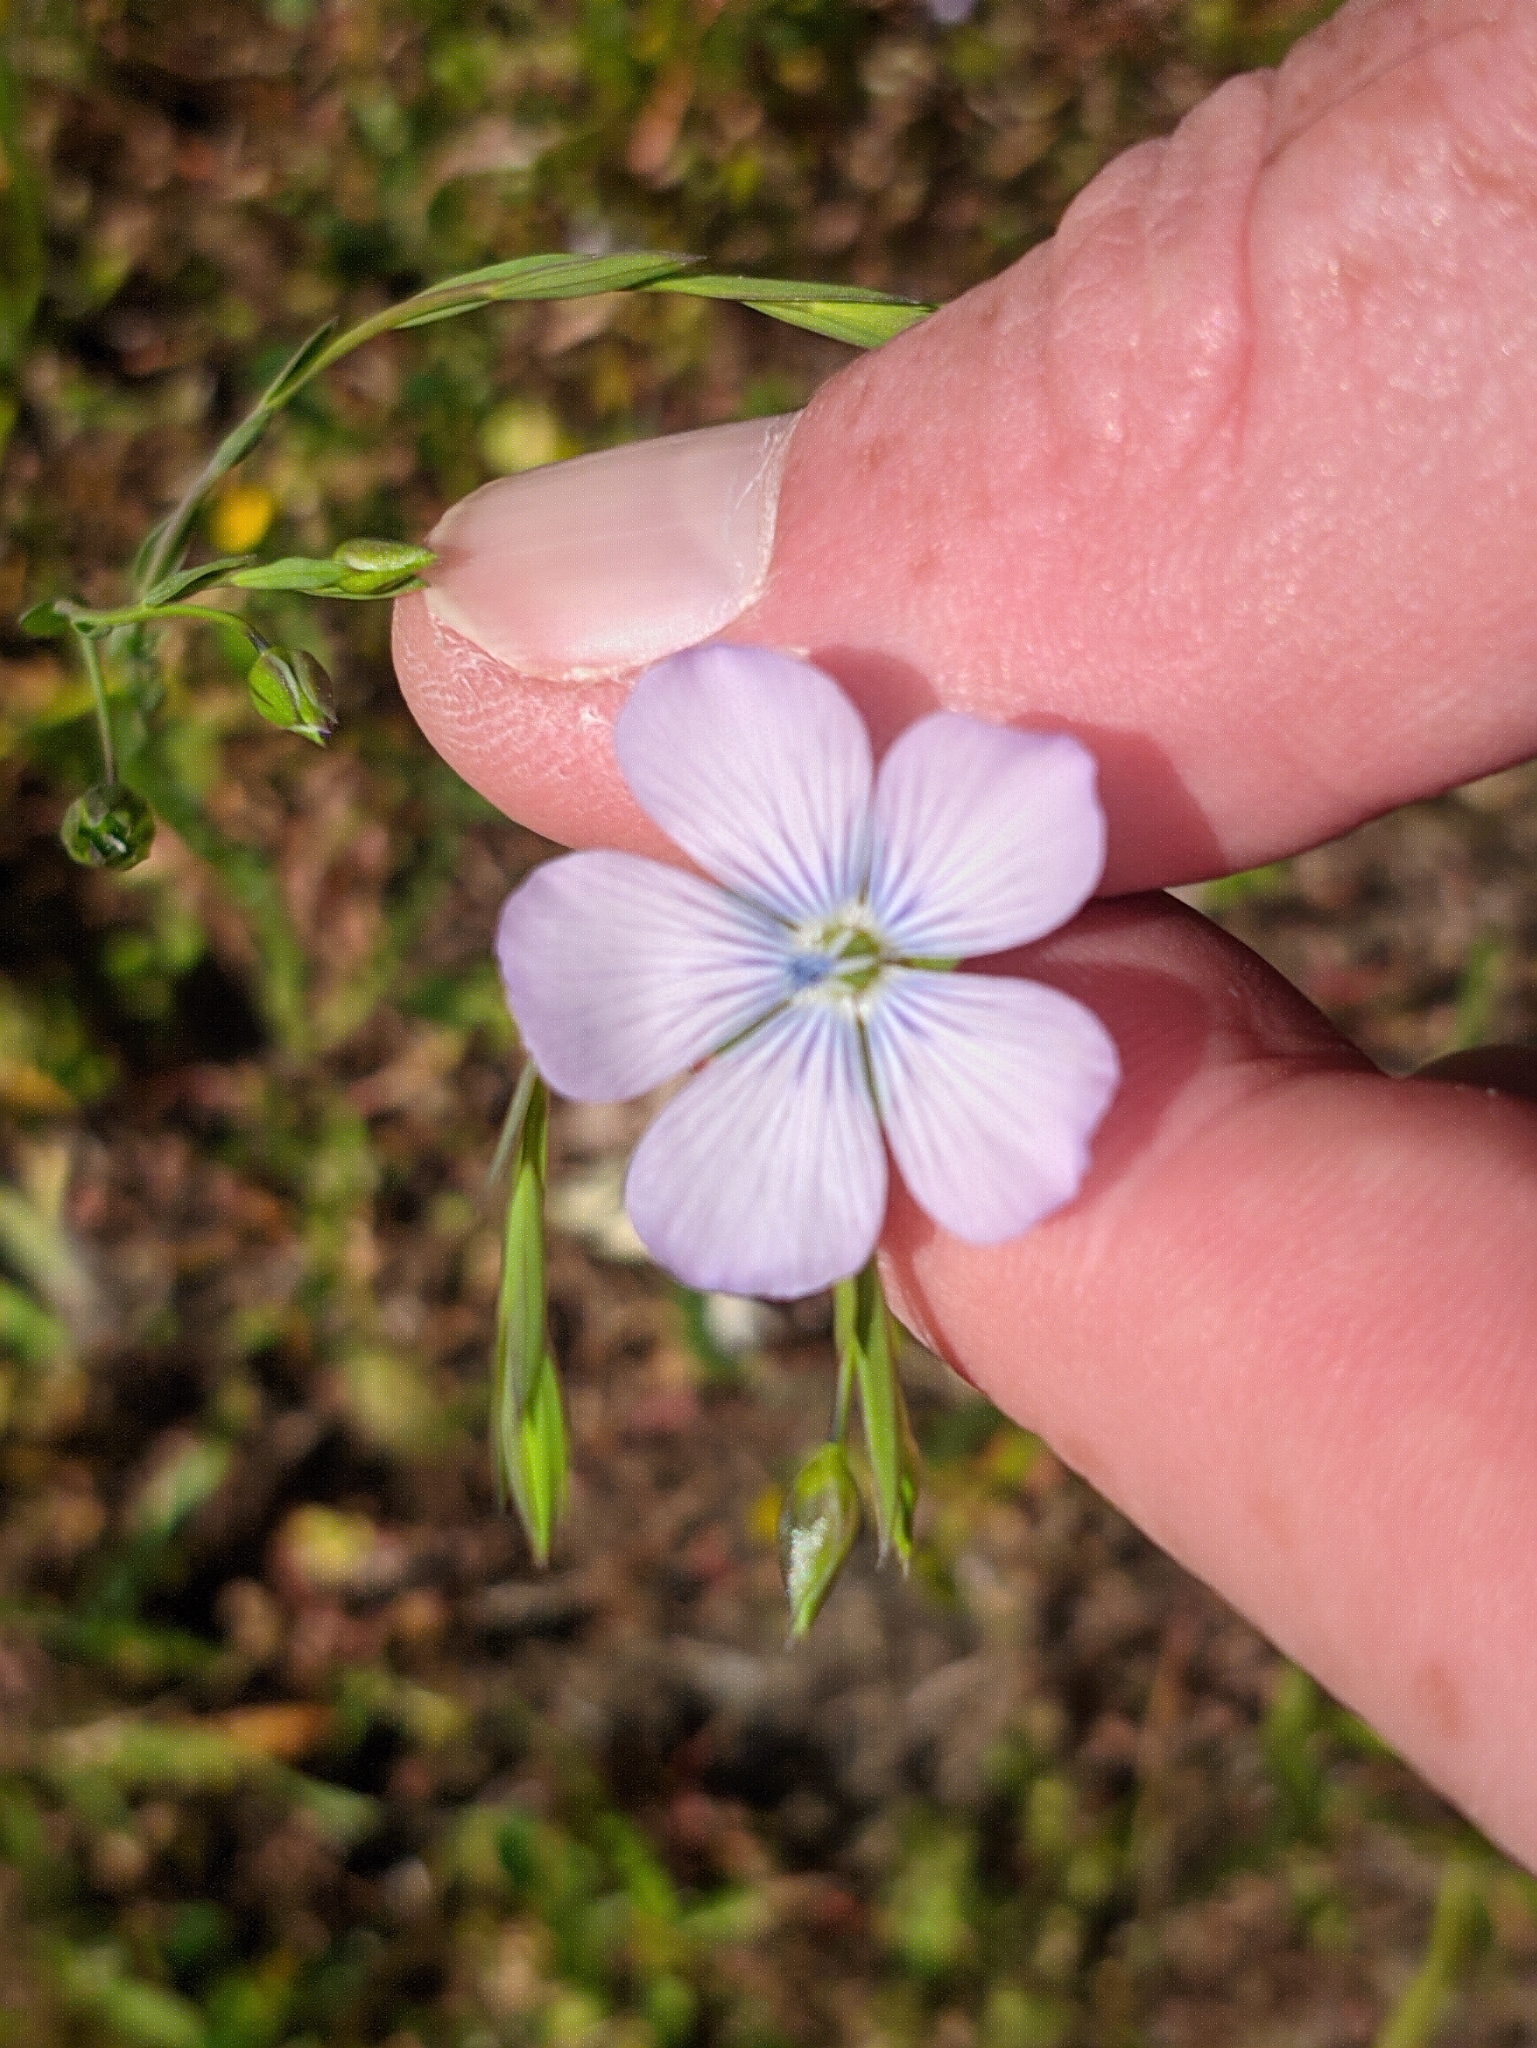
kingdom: Plantae
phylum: Tracheophyta
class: Magnoliopsida
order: Malpighiales
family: Linaceae
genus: Linum
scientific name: Linum bienne
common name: Pale flax
